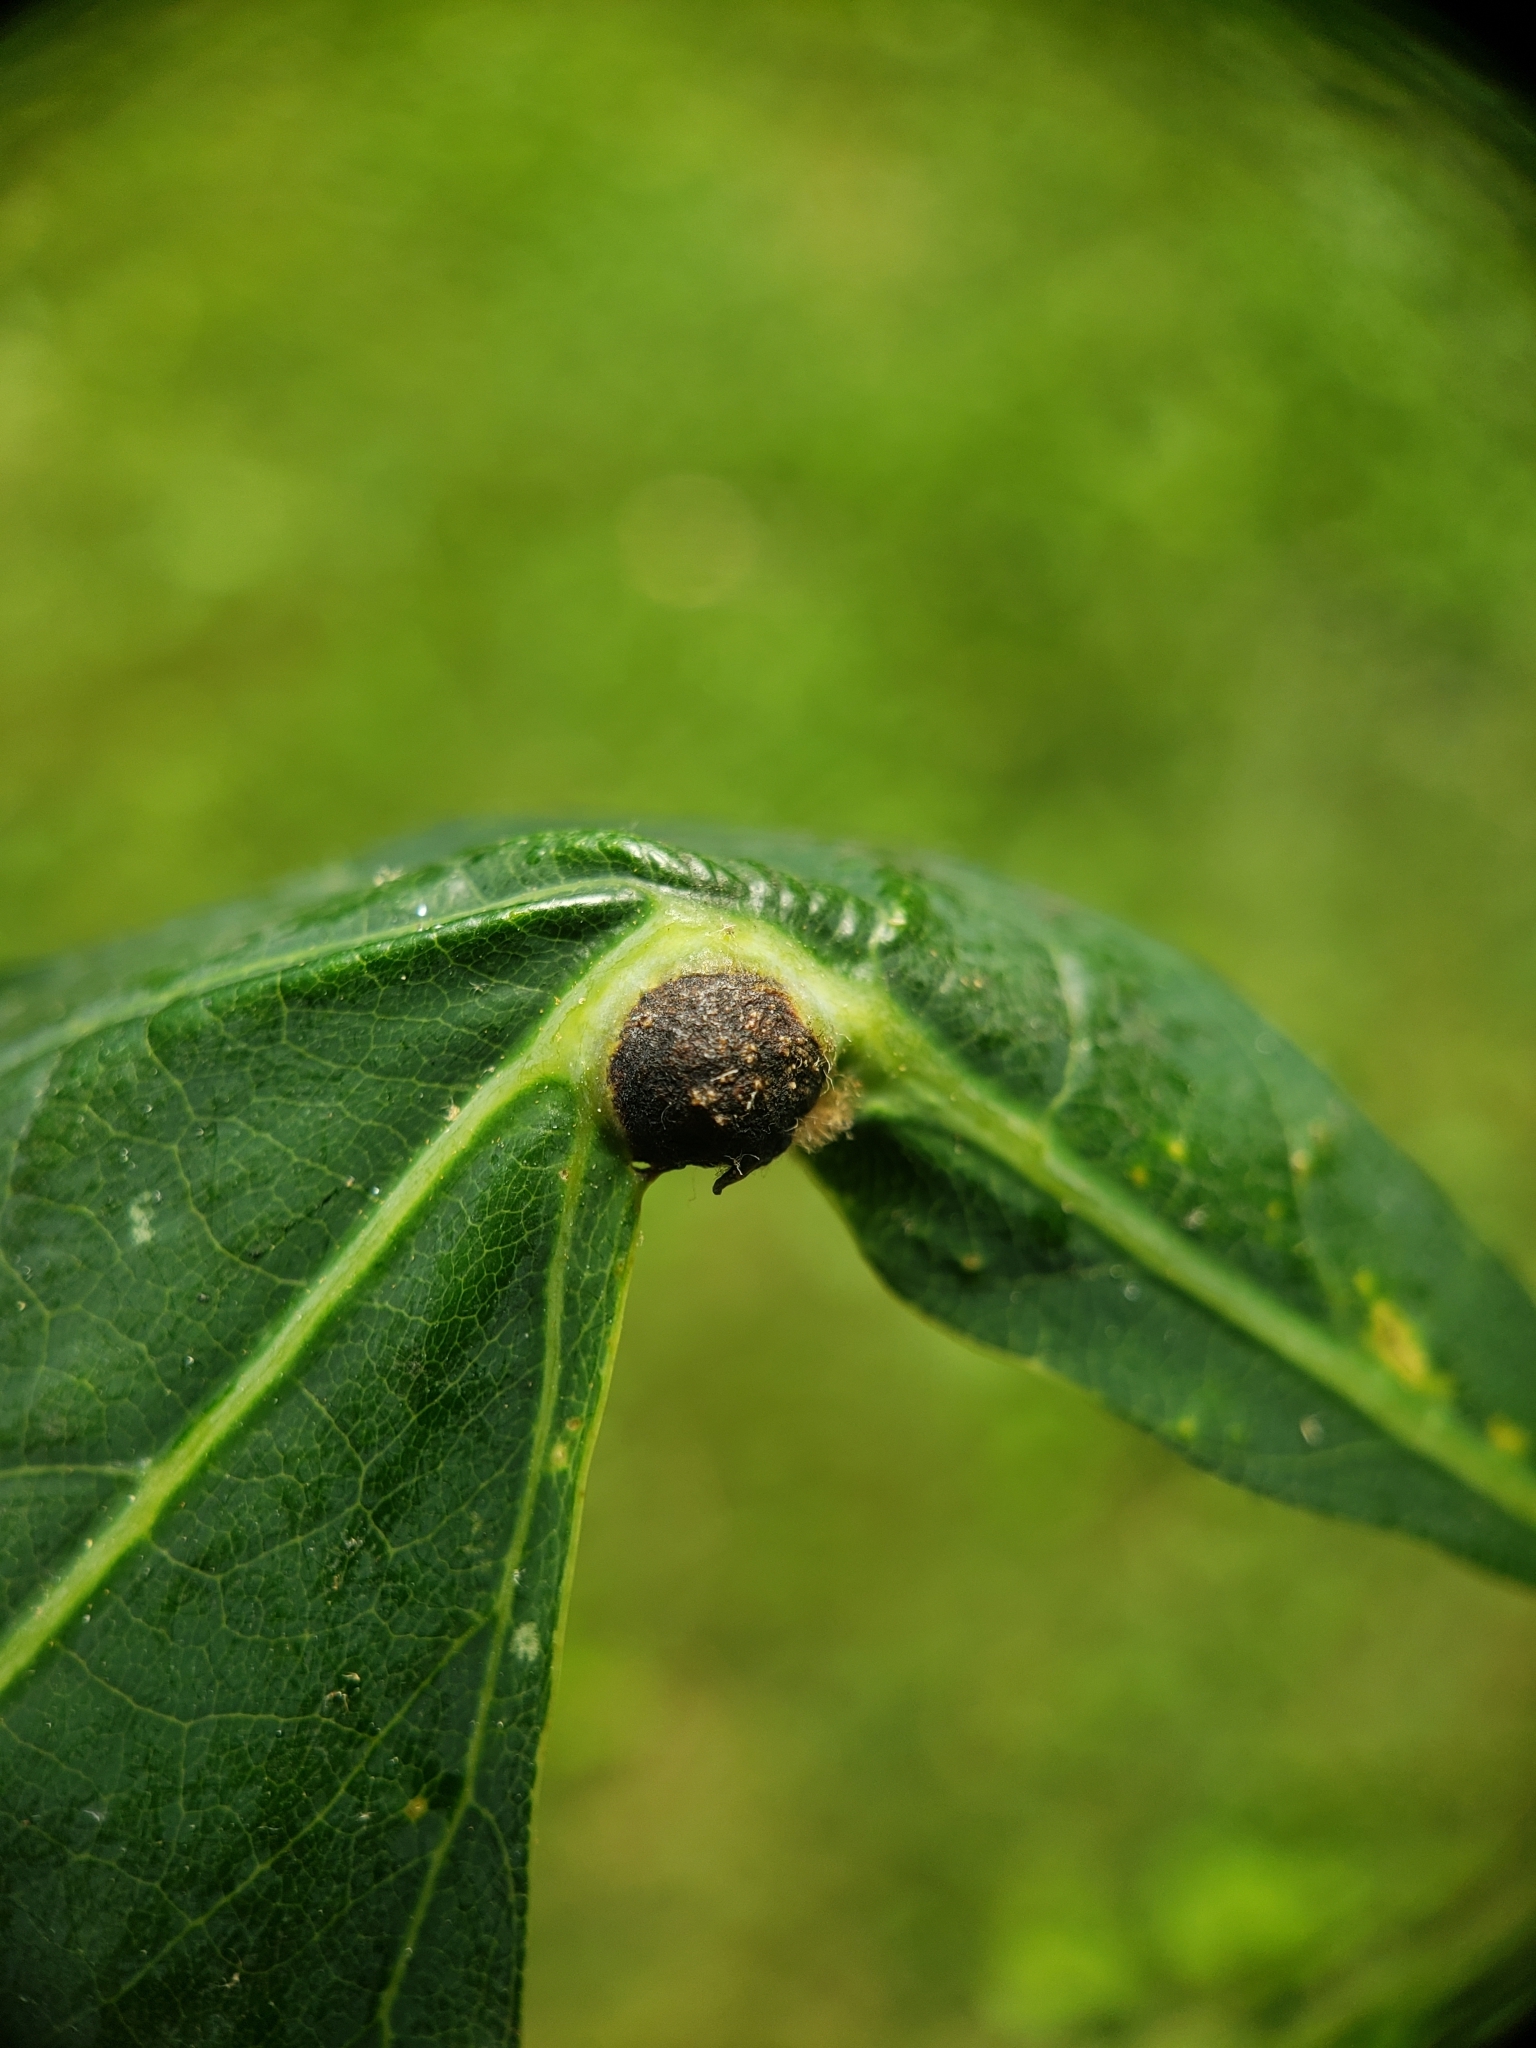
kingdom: Animalia
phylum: Arthropoda
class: Insecta
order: Hymenoptera
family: Cynipidae
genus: Andricus
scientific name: Andricus
